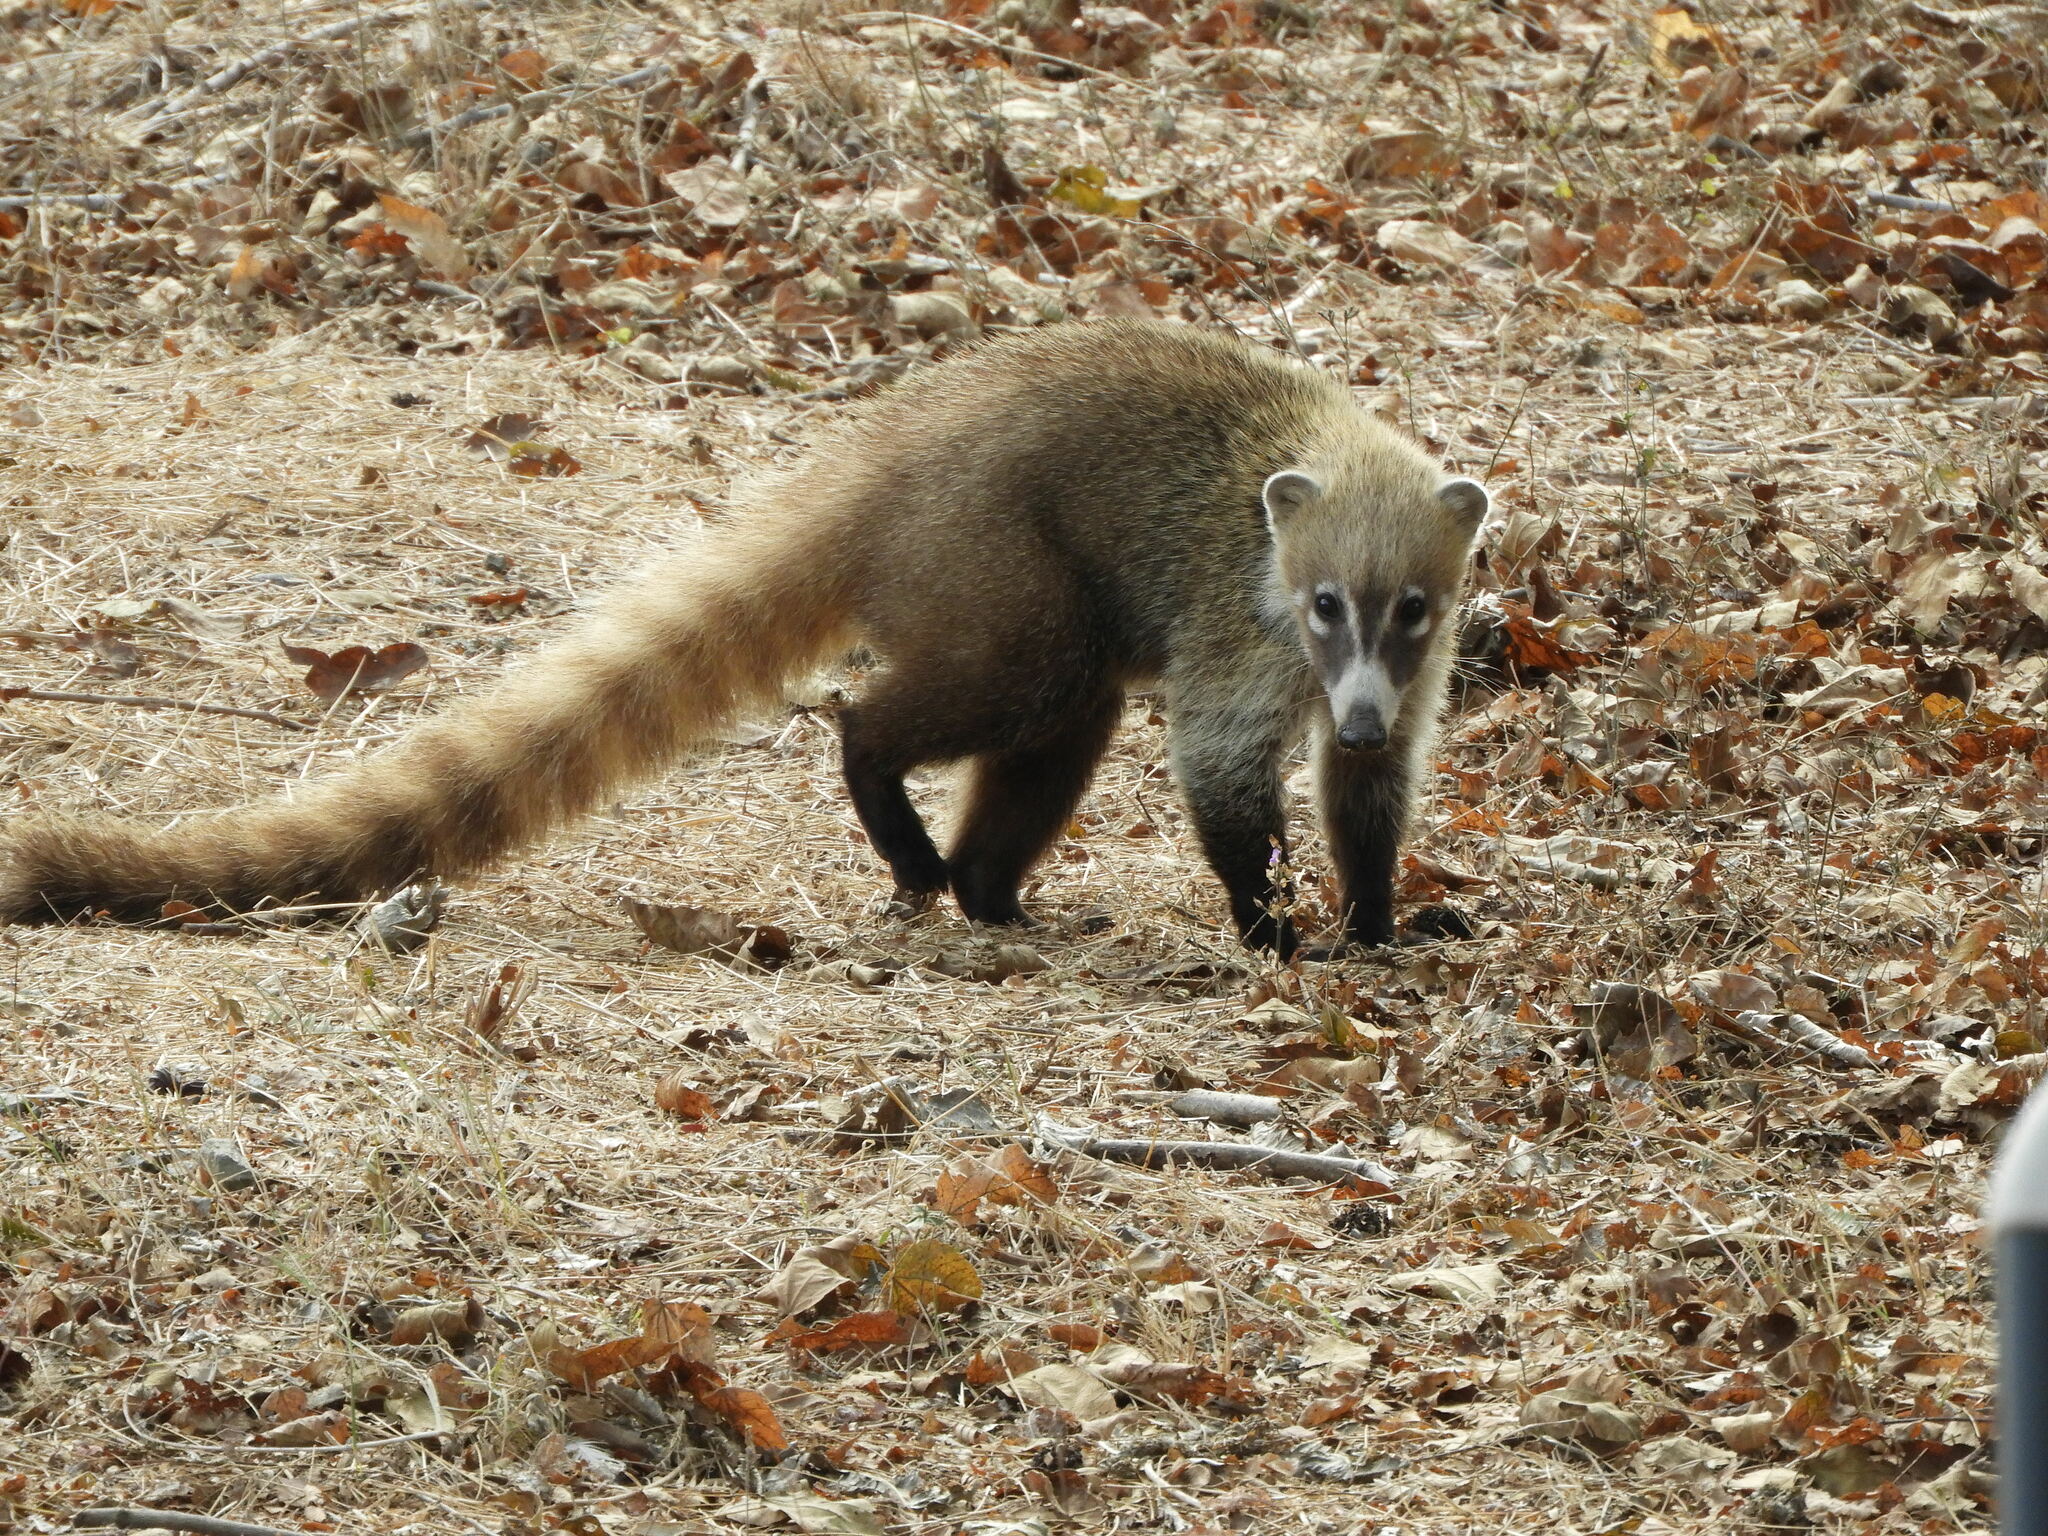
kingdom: Animalia
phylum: Chordata
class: Mammalia
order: Carnivora
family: Procyonidae
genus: Nasua
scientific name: Nasua narica
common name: White-nosed coati
